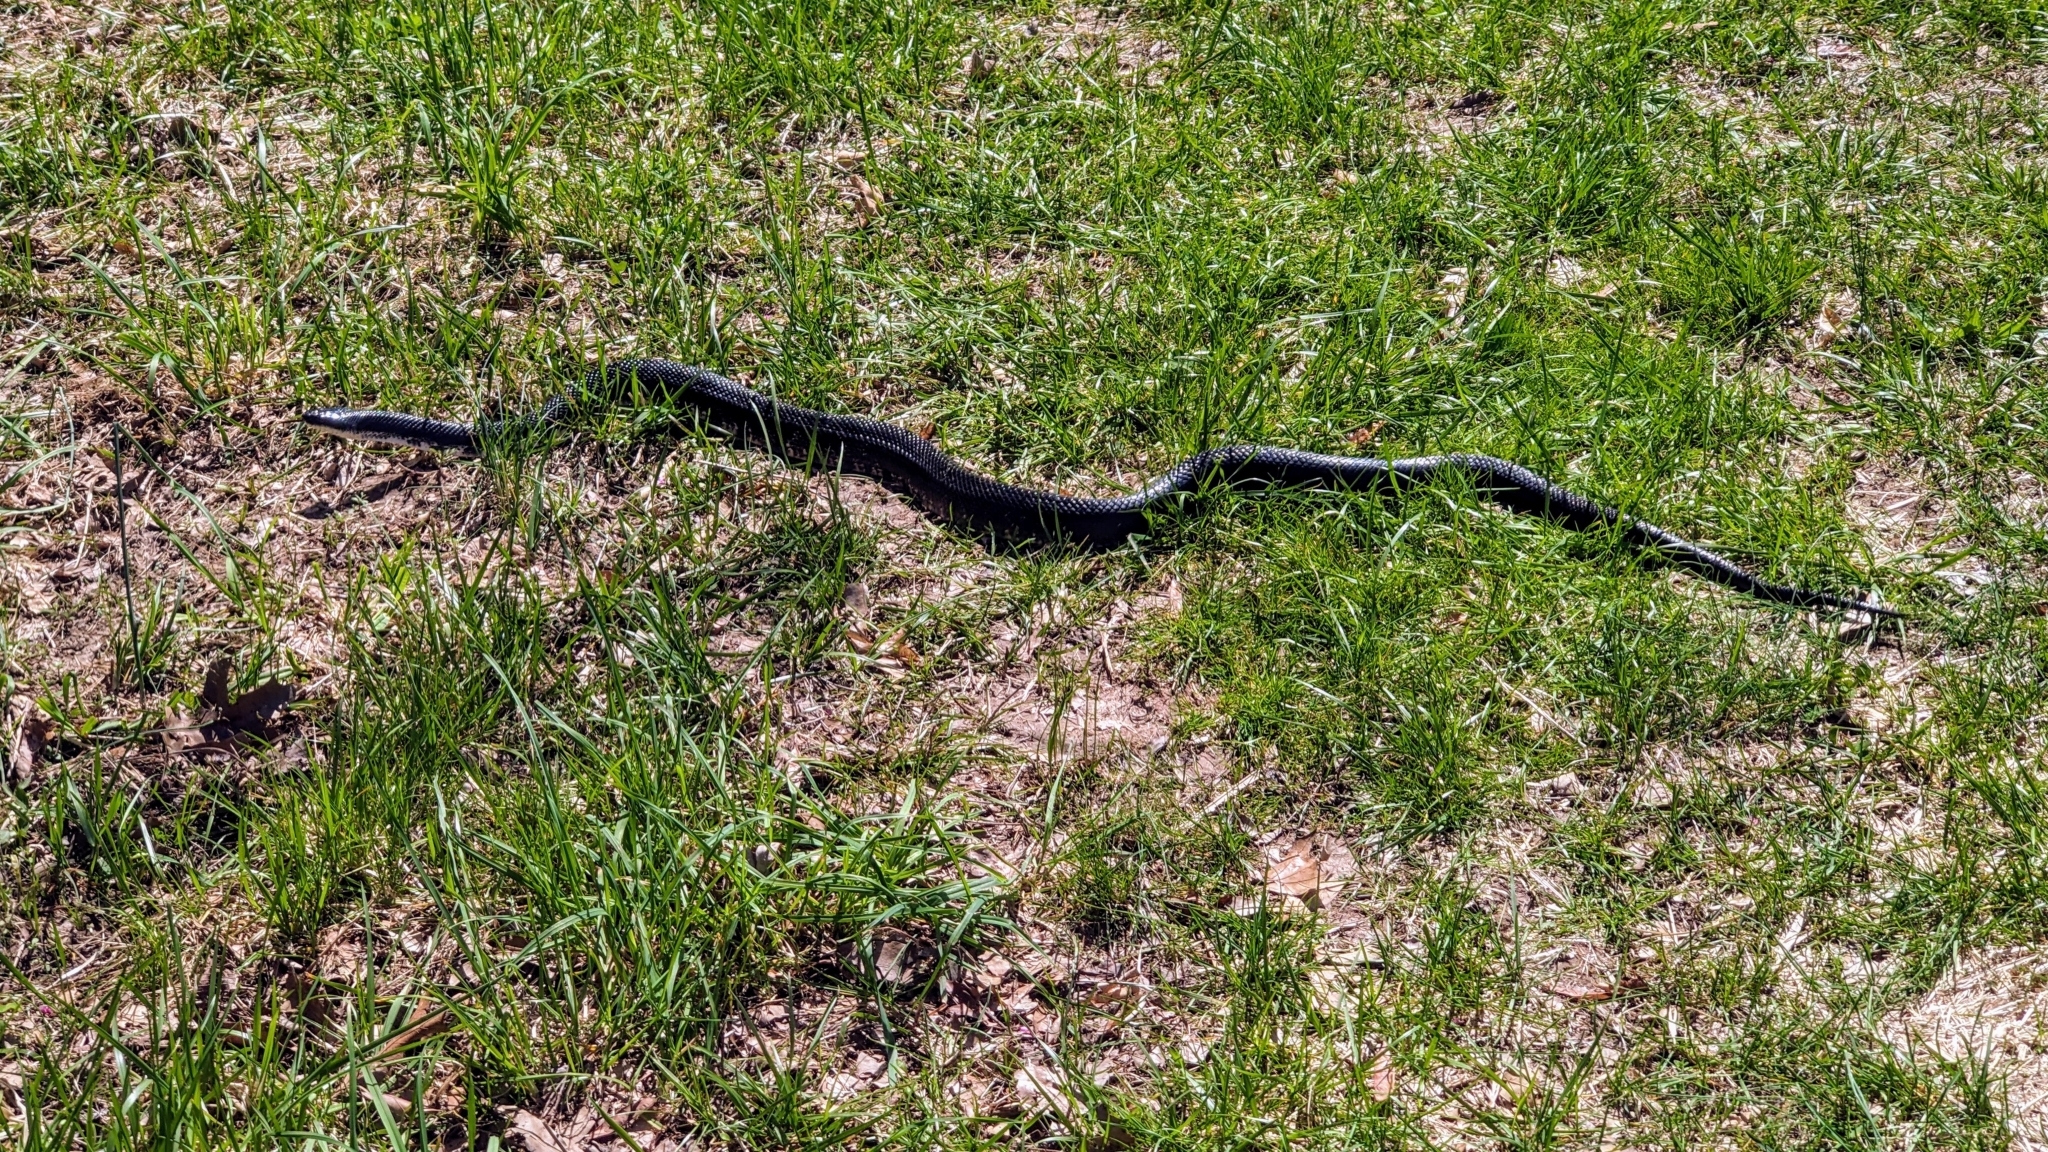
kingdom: Animalia
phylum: Chordata
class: Squamata
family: Colubridae
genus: Pantherophis
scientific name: Pantherophis obsoletus
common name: Black rat snake
